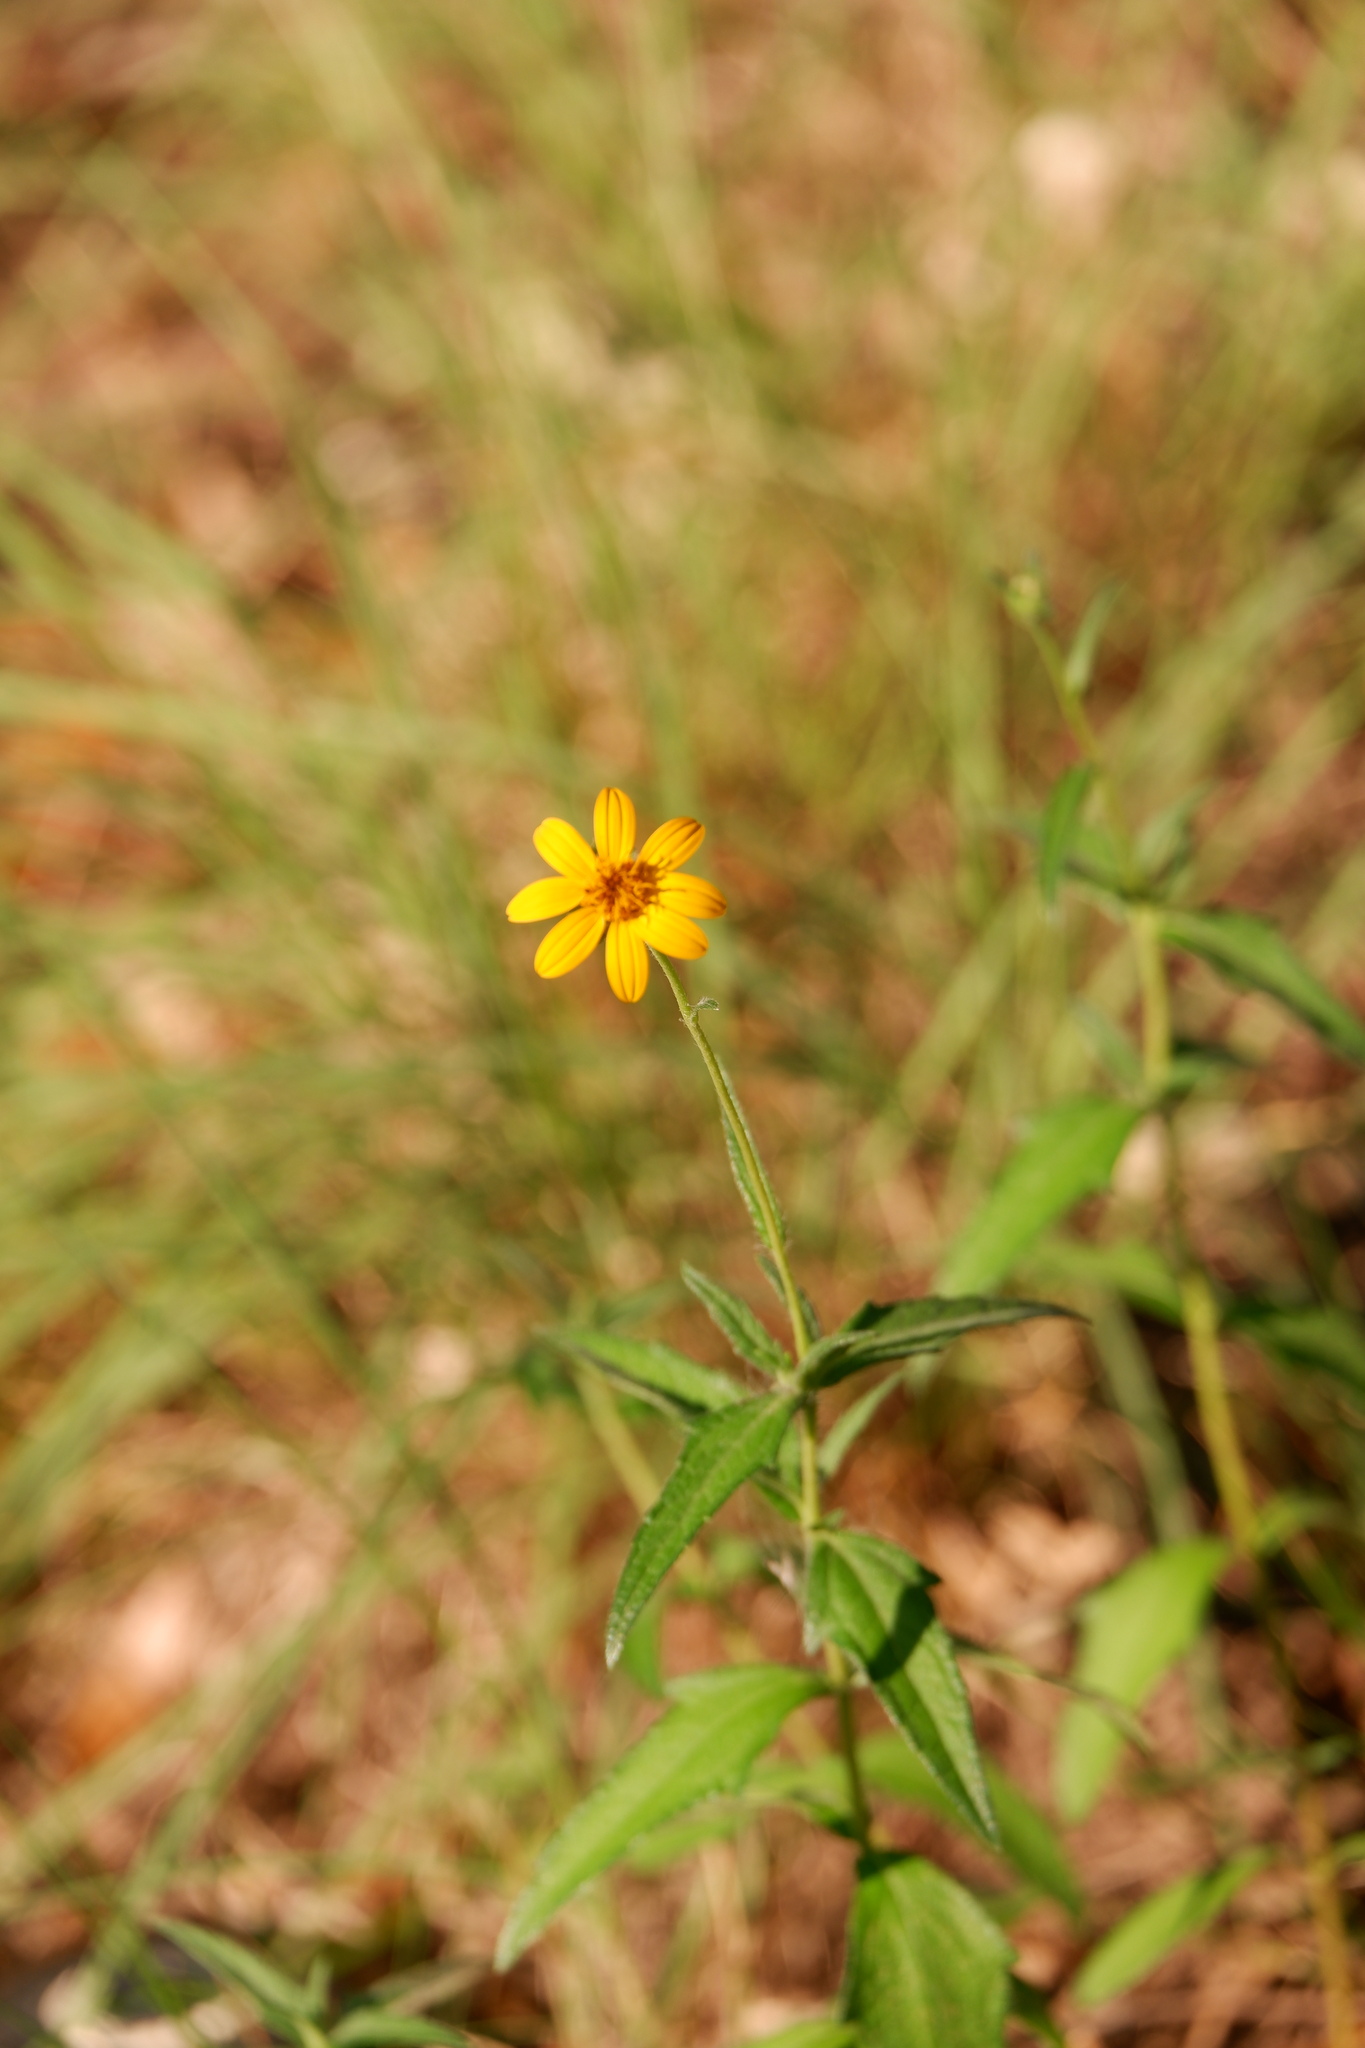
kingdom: Plantae
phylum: Tracheophyta
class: Magnoliopsida
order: Asterales
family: Asteraceae
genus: Wedelia
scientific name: Wedelia acapulcensis
